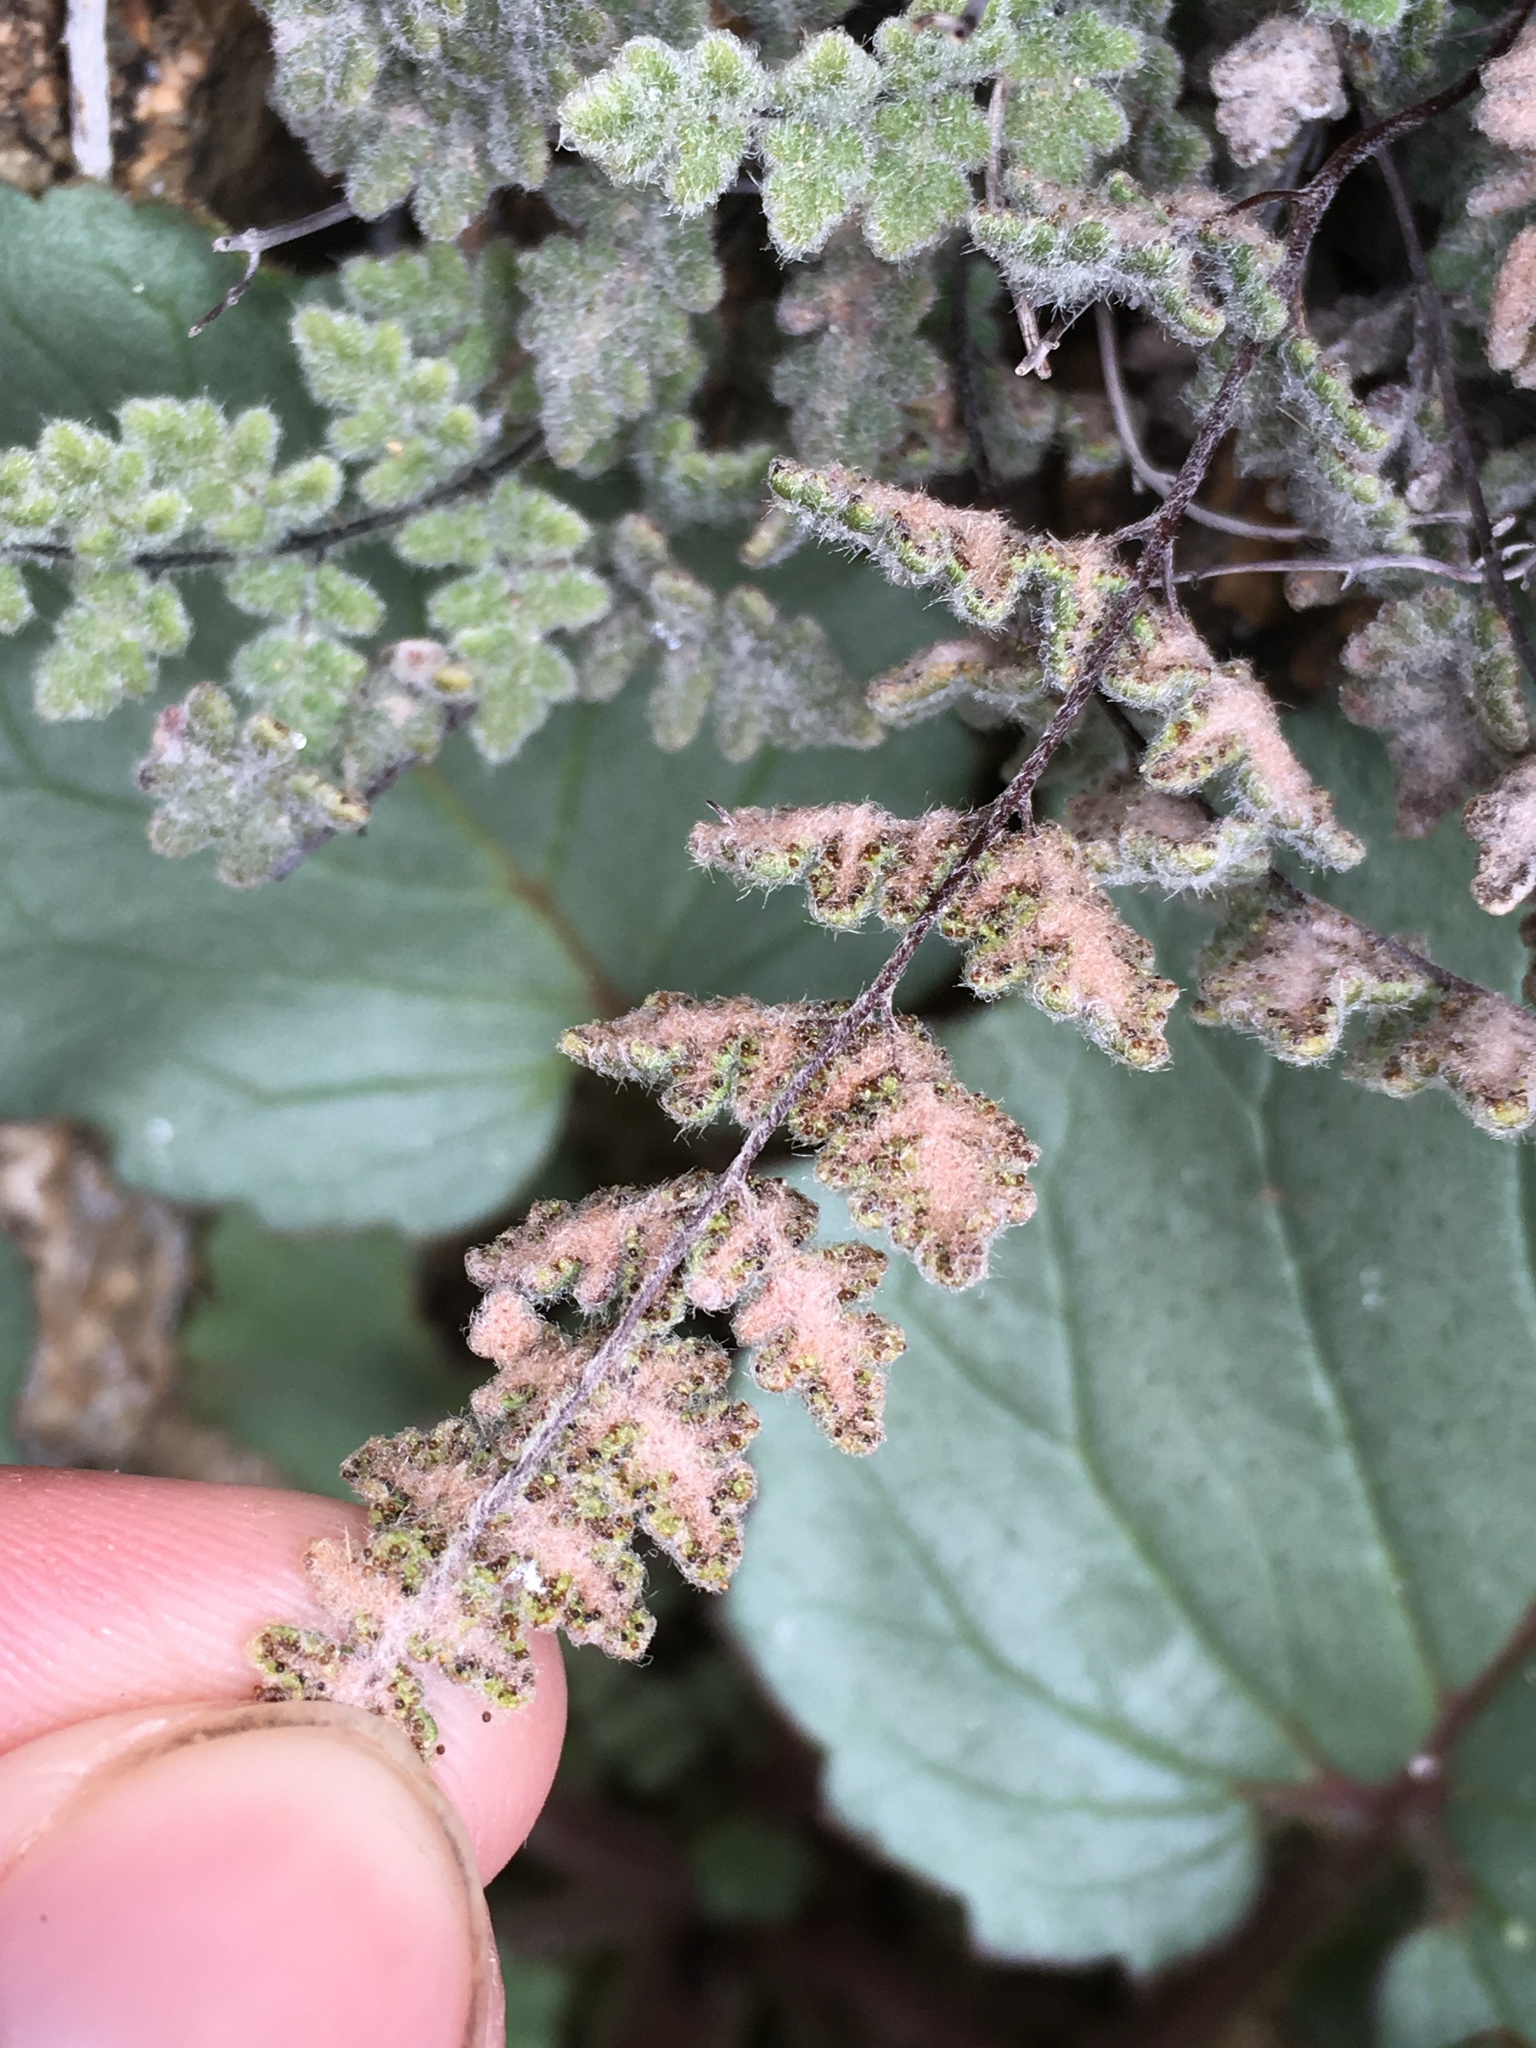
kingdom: Plantae
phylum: Tracheophyta
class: Polypodiopsida
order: Polypodiales
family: Pteridaceae
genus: Myriopteris
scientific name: Myriopteris parryi
